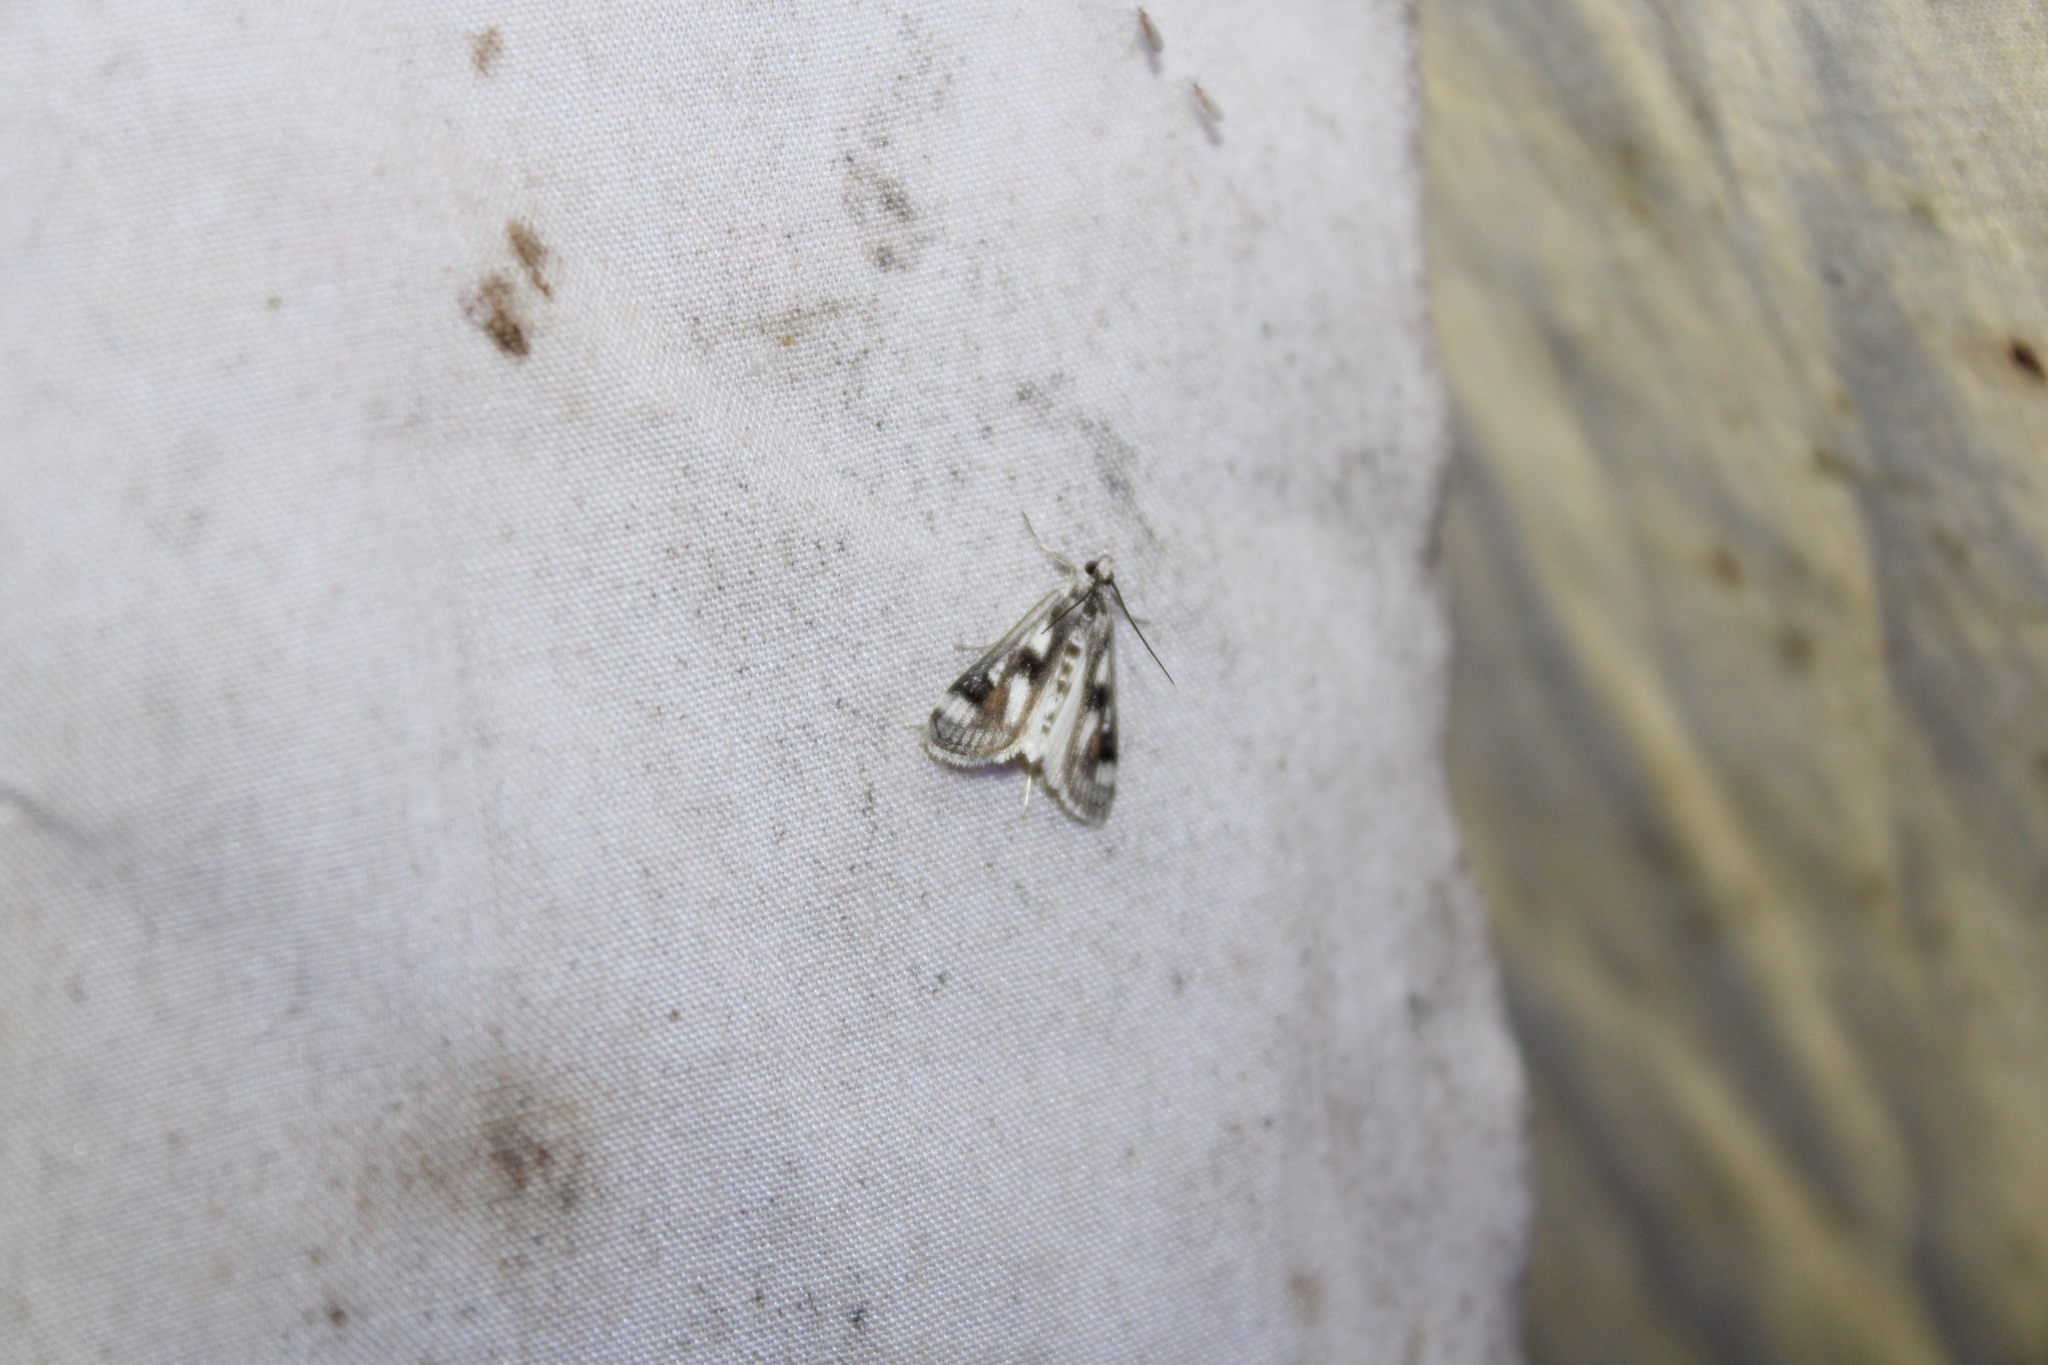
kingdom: Animalia
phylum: Arthropoda
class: Insecta
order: Lepidoptera
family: Crambidae
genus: Parapoynx
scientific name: Parapoynx maculalis
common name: Polymorphic pondweed moth
